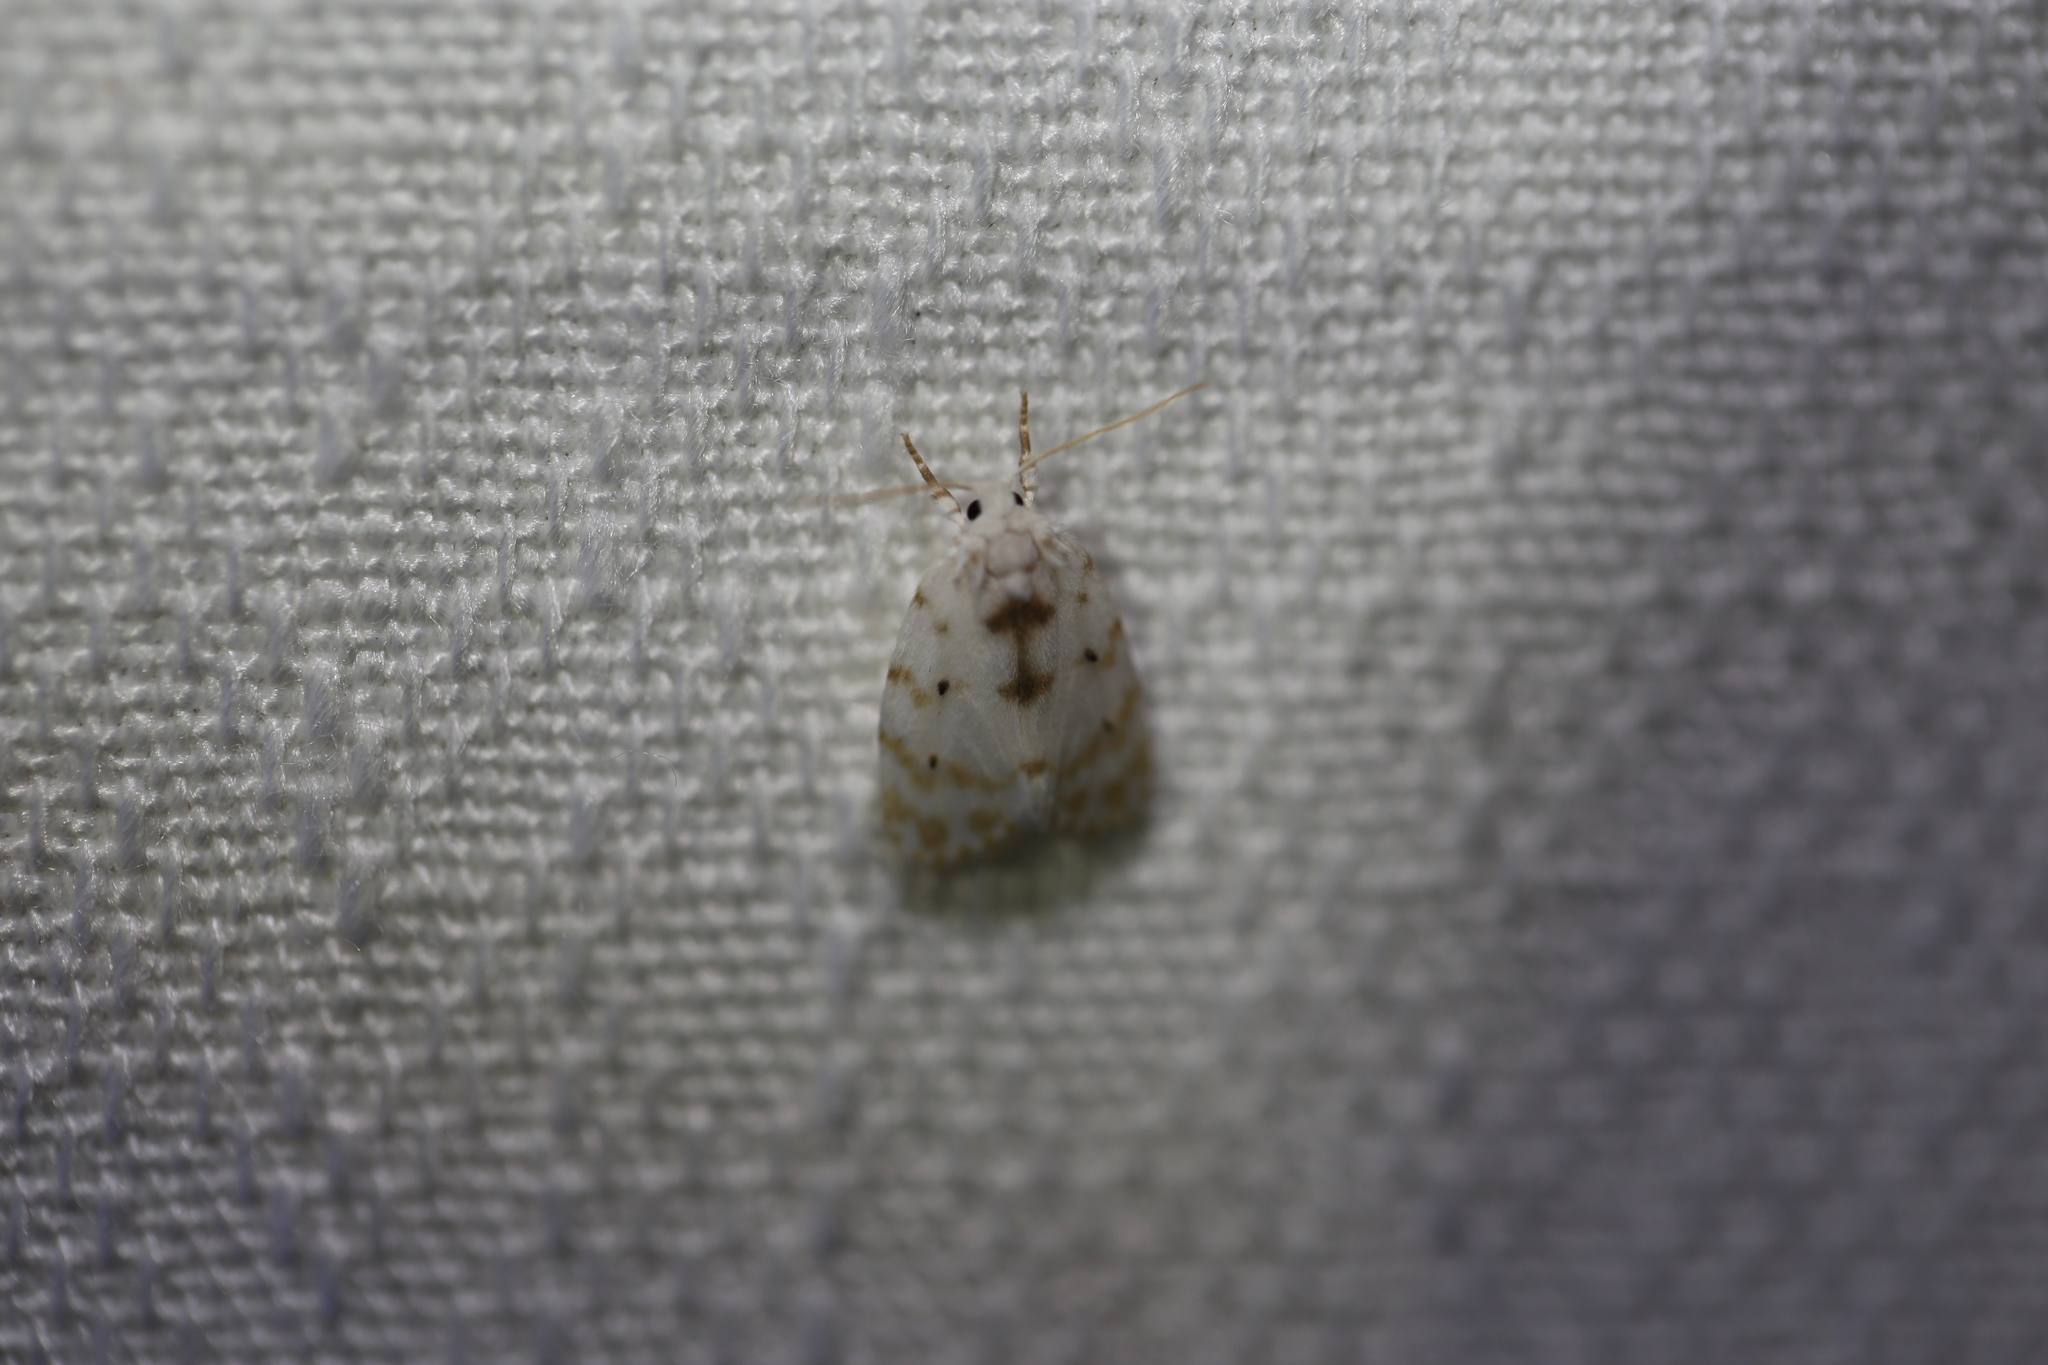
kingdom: Animalia
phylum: Arthropoda
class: Insecta
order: Lepidoptera
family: Erebidae
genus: Schistophleps
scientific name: Schistophleps albida
